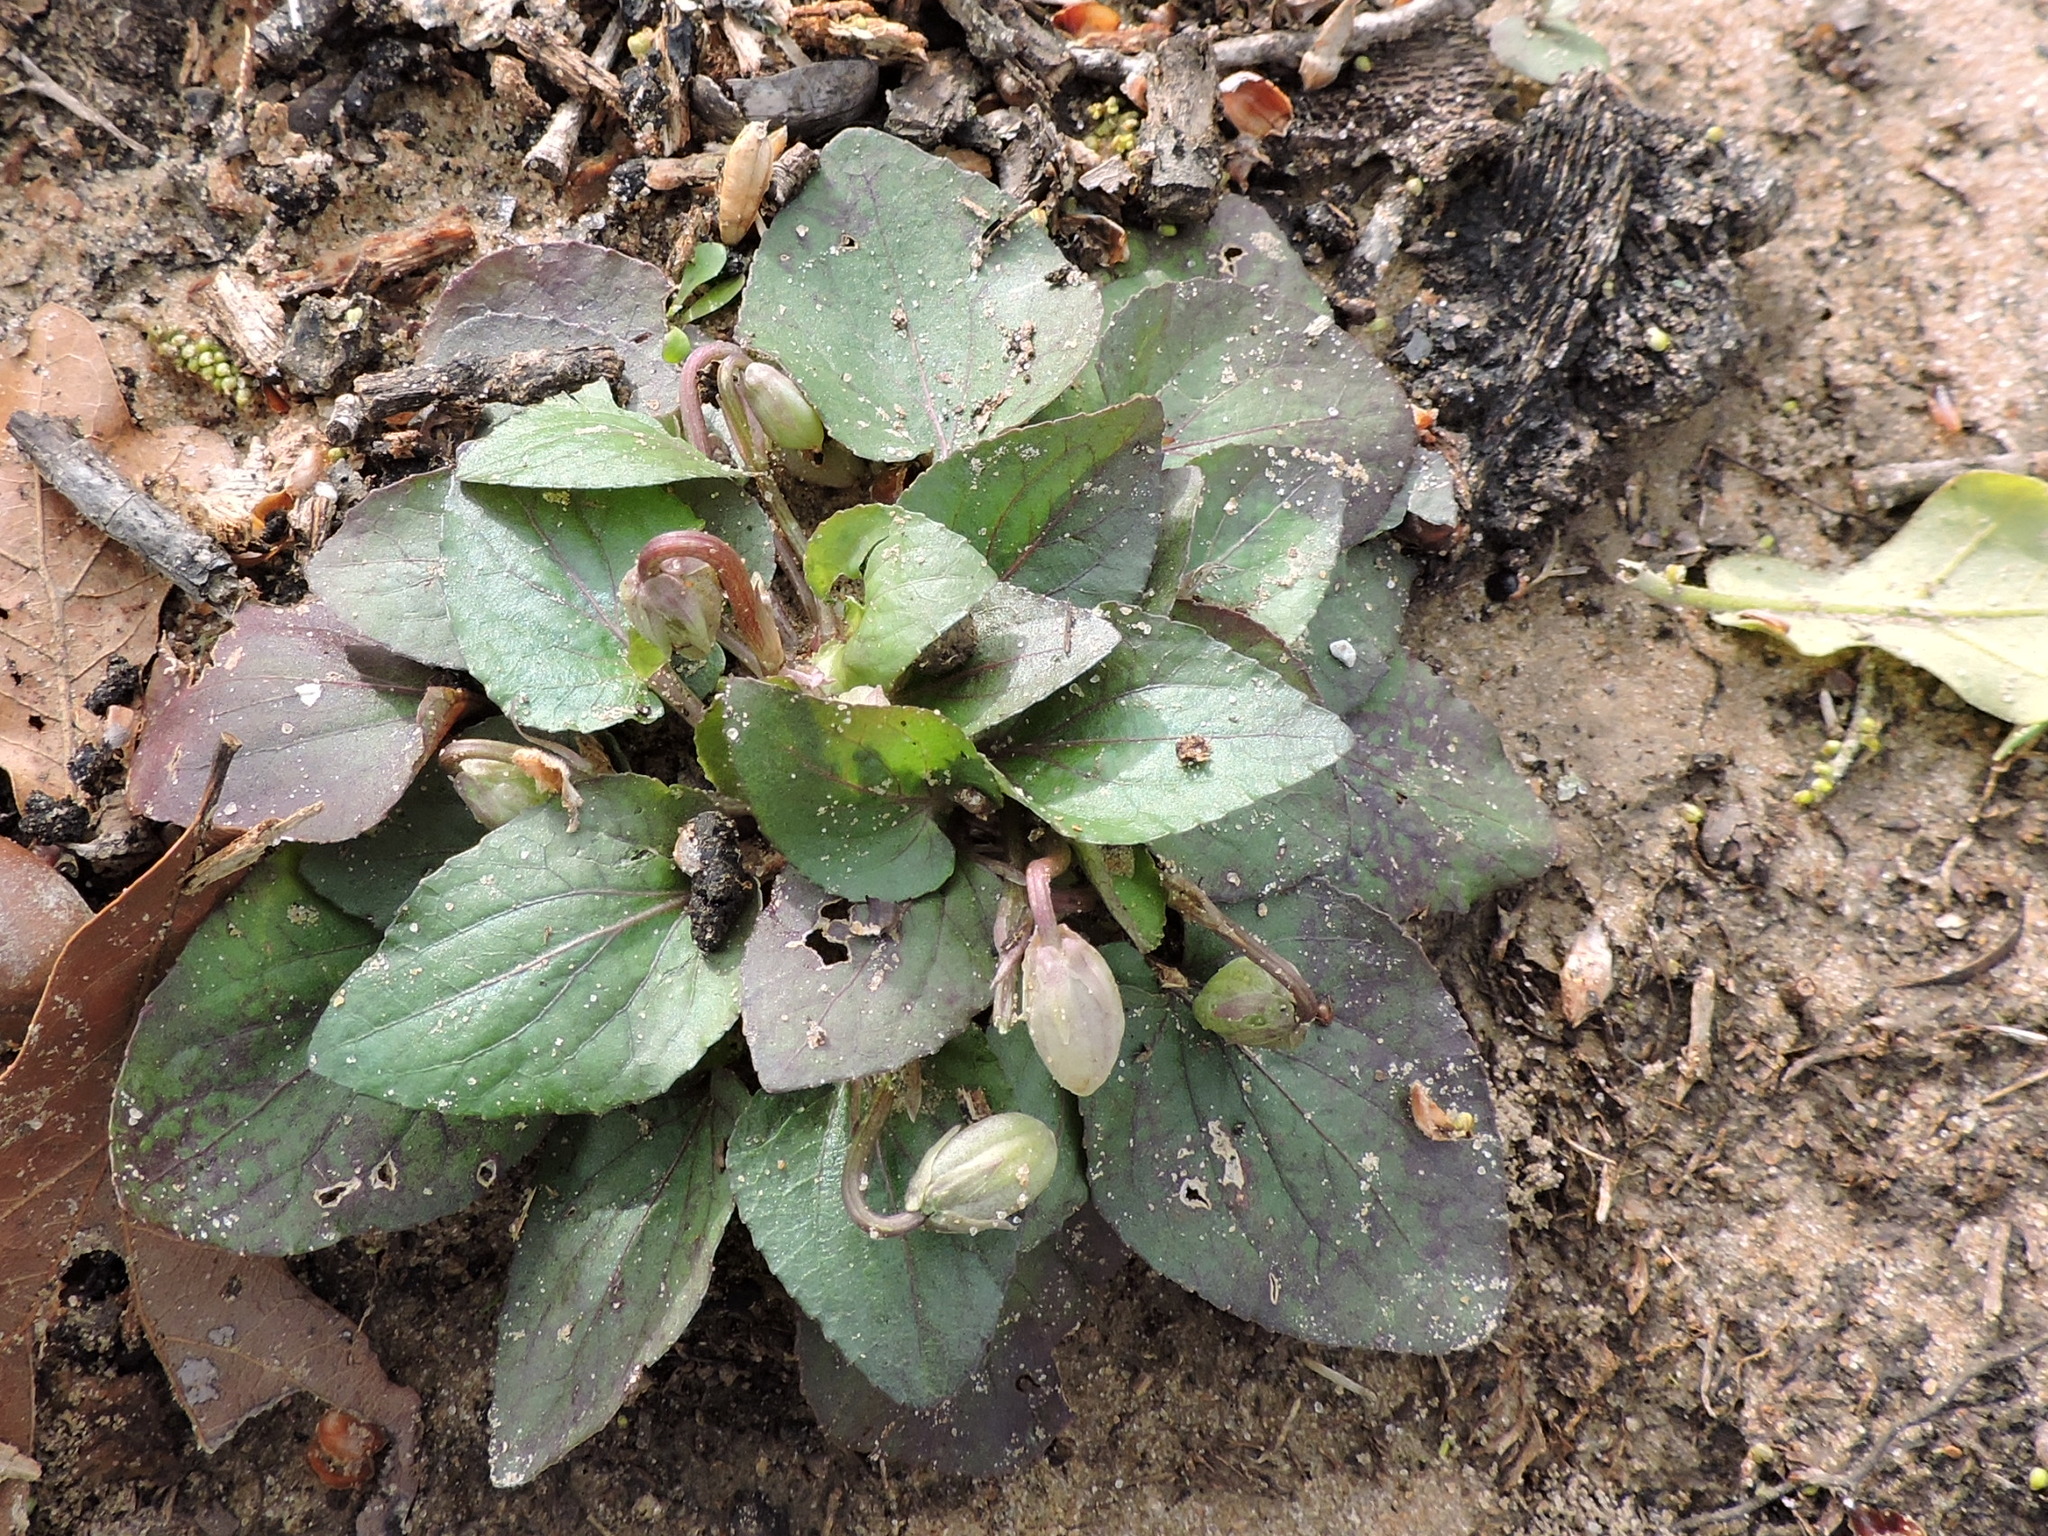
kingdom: Plantae
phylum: Tracheophyta
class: Magnoliopsida
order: Malpighiales
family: Violaceae
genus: Viola
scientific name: Viola villosa
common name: Carolina violet
